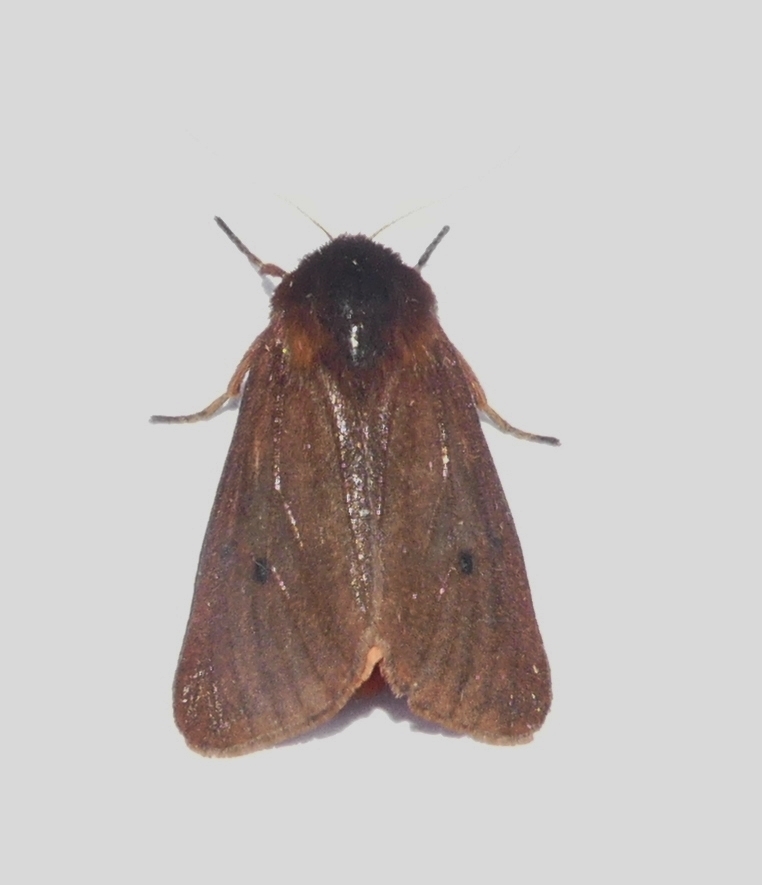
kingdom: Animalia
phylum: Arthropoda
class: Insecta
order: Lepidoptera
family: Erebidae
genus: Phragmatobia
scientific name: Phragmatobia fuliginosa
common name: Ruby tiger
